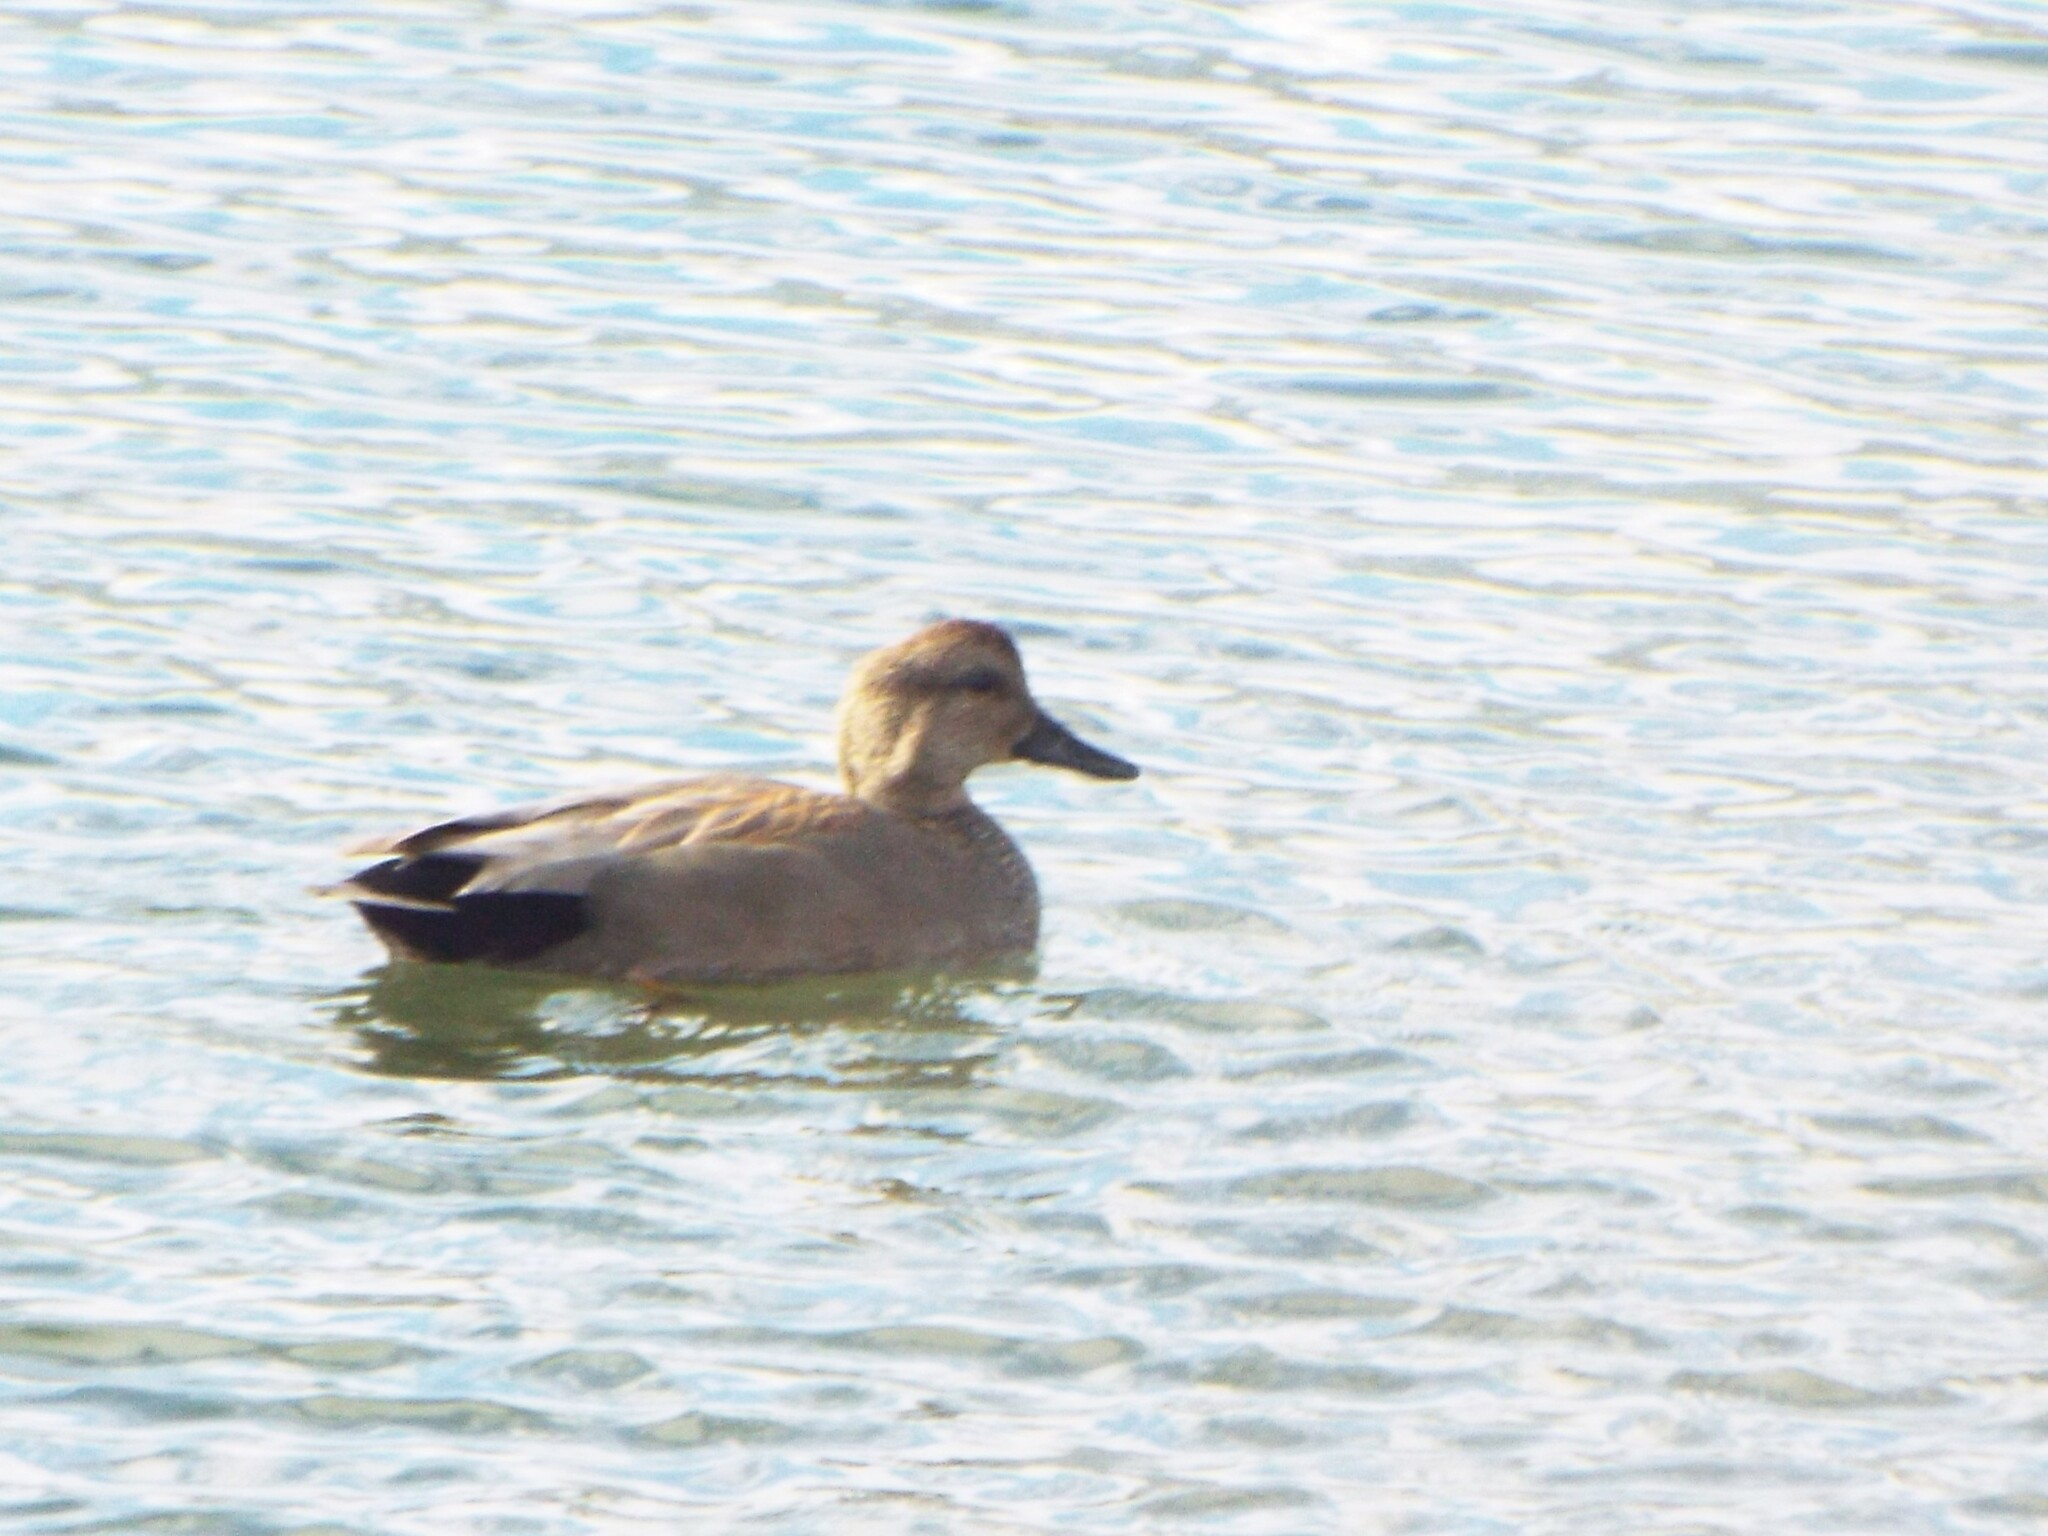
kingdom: Animalia
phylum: Chordata
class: Aves
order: Anseriformes
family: Anatidae
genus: Mareca
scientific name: Mareca strepera
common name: Gadwall
